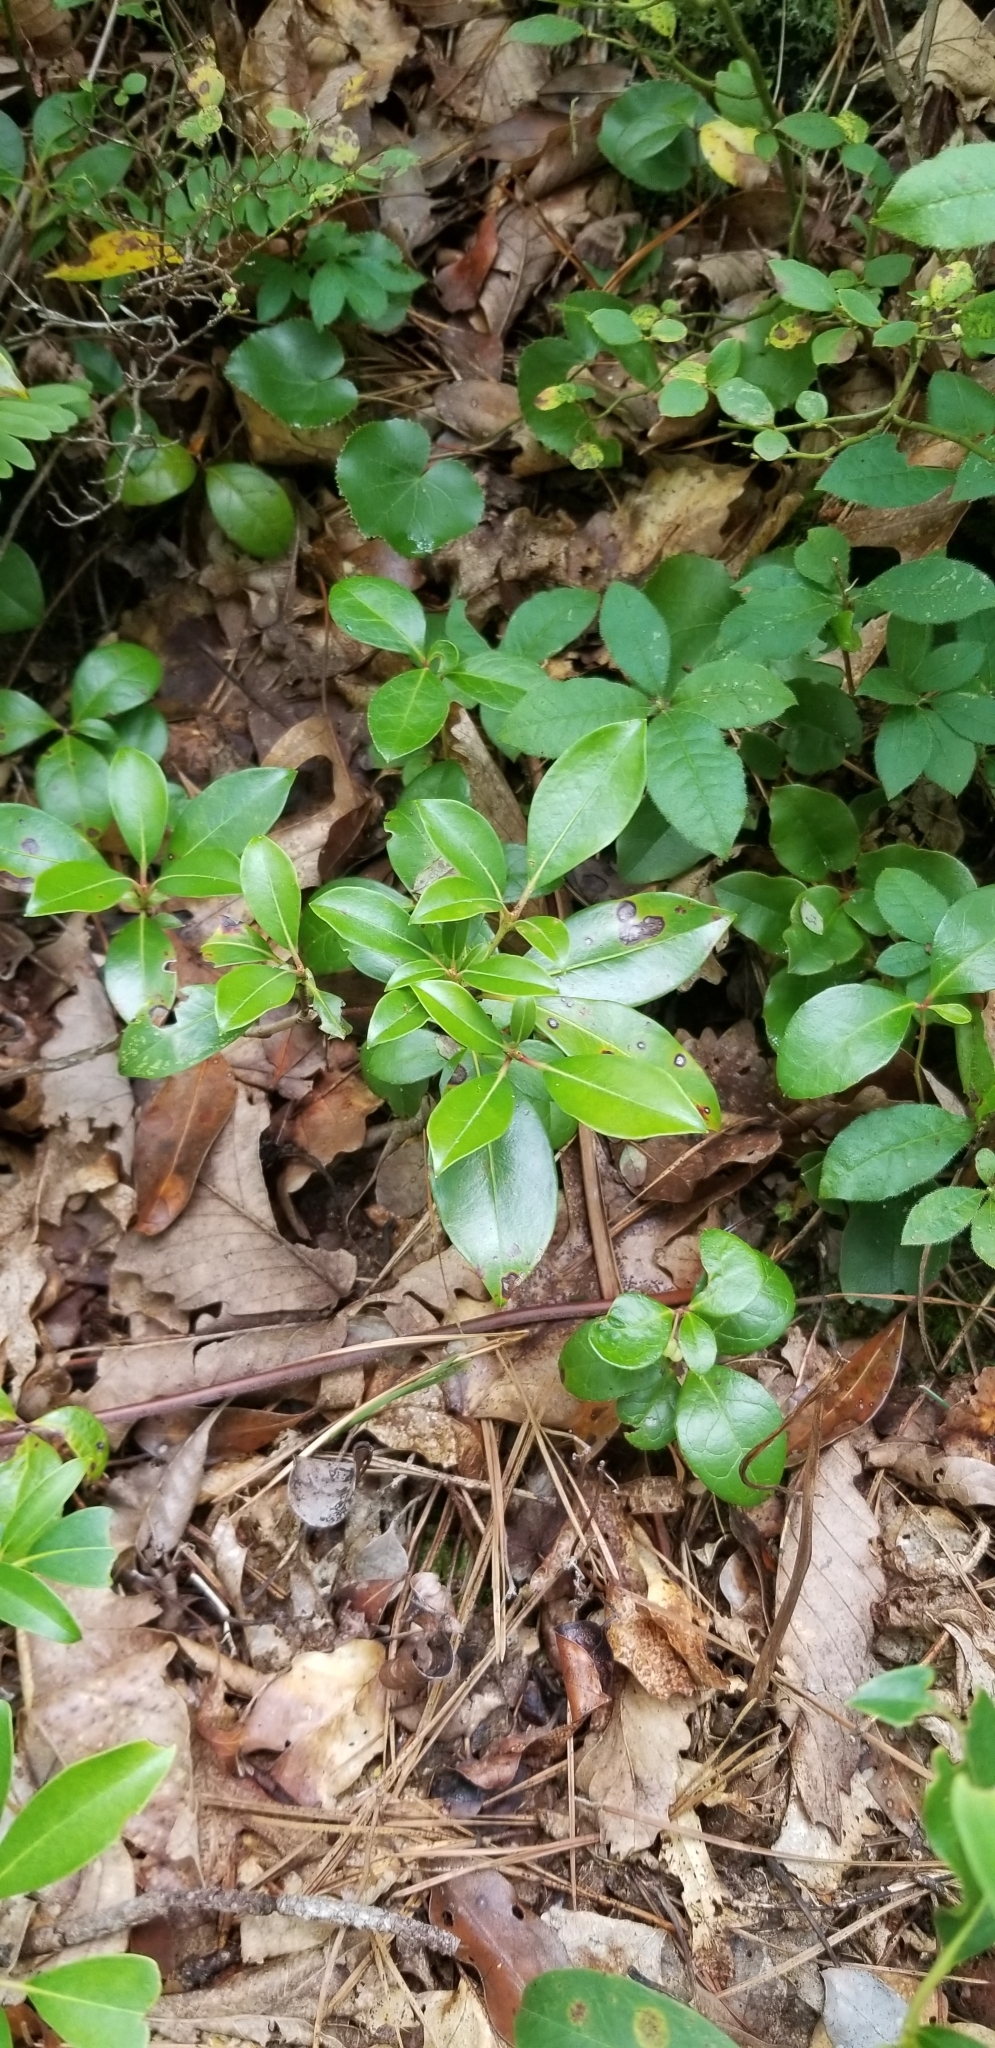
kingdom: Plantae
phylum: Tracheophyta
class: Magnoliopsida
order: Ericales
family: Ericaceae
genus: Gaultheria
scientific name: Gaultheria procumbens
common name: Checkerberry
